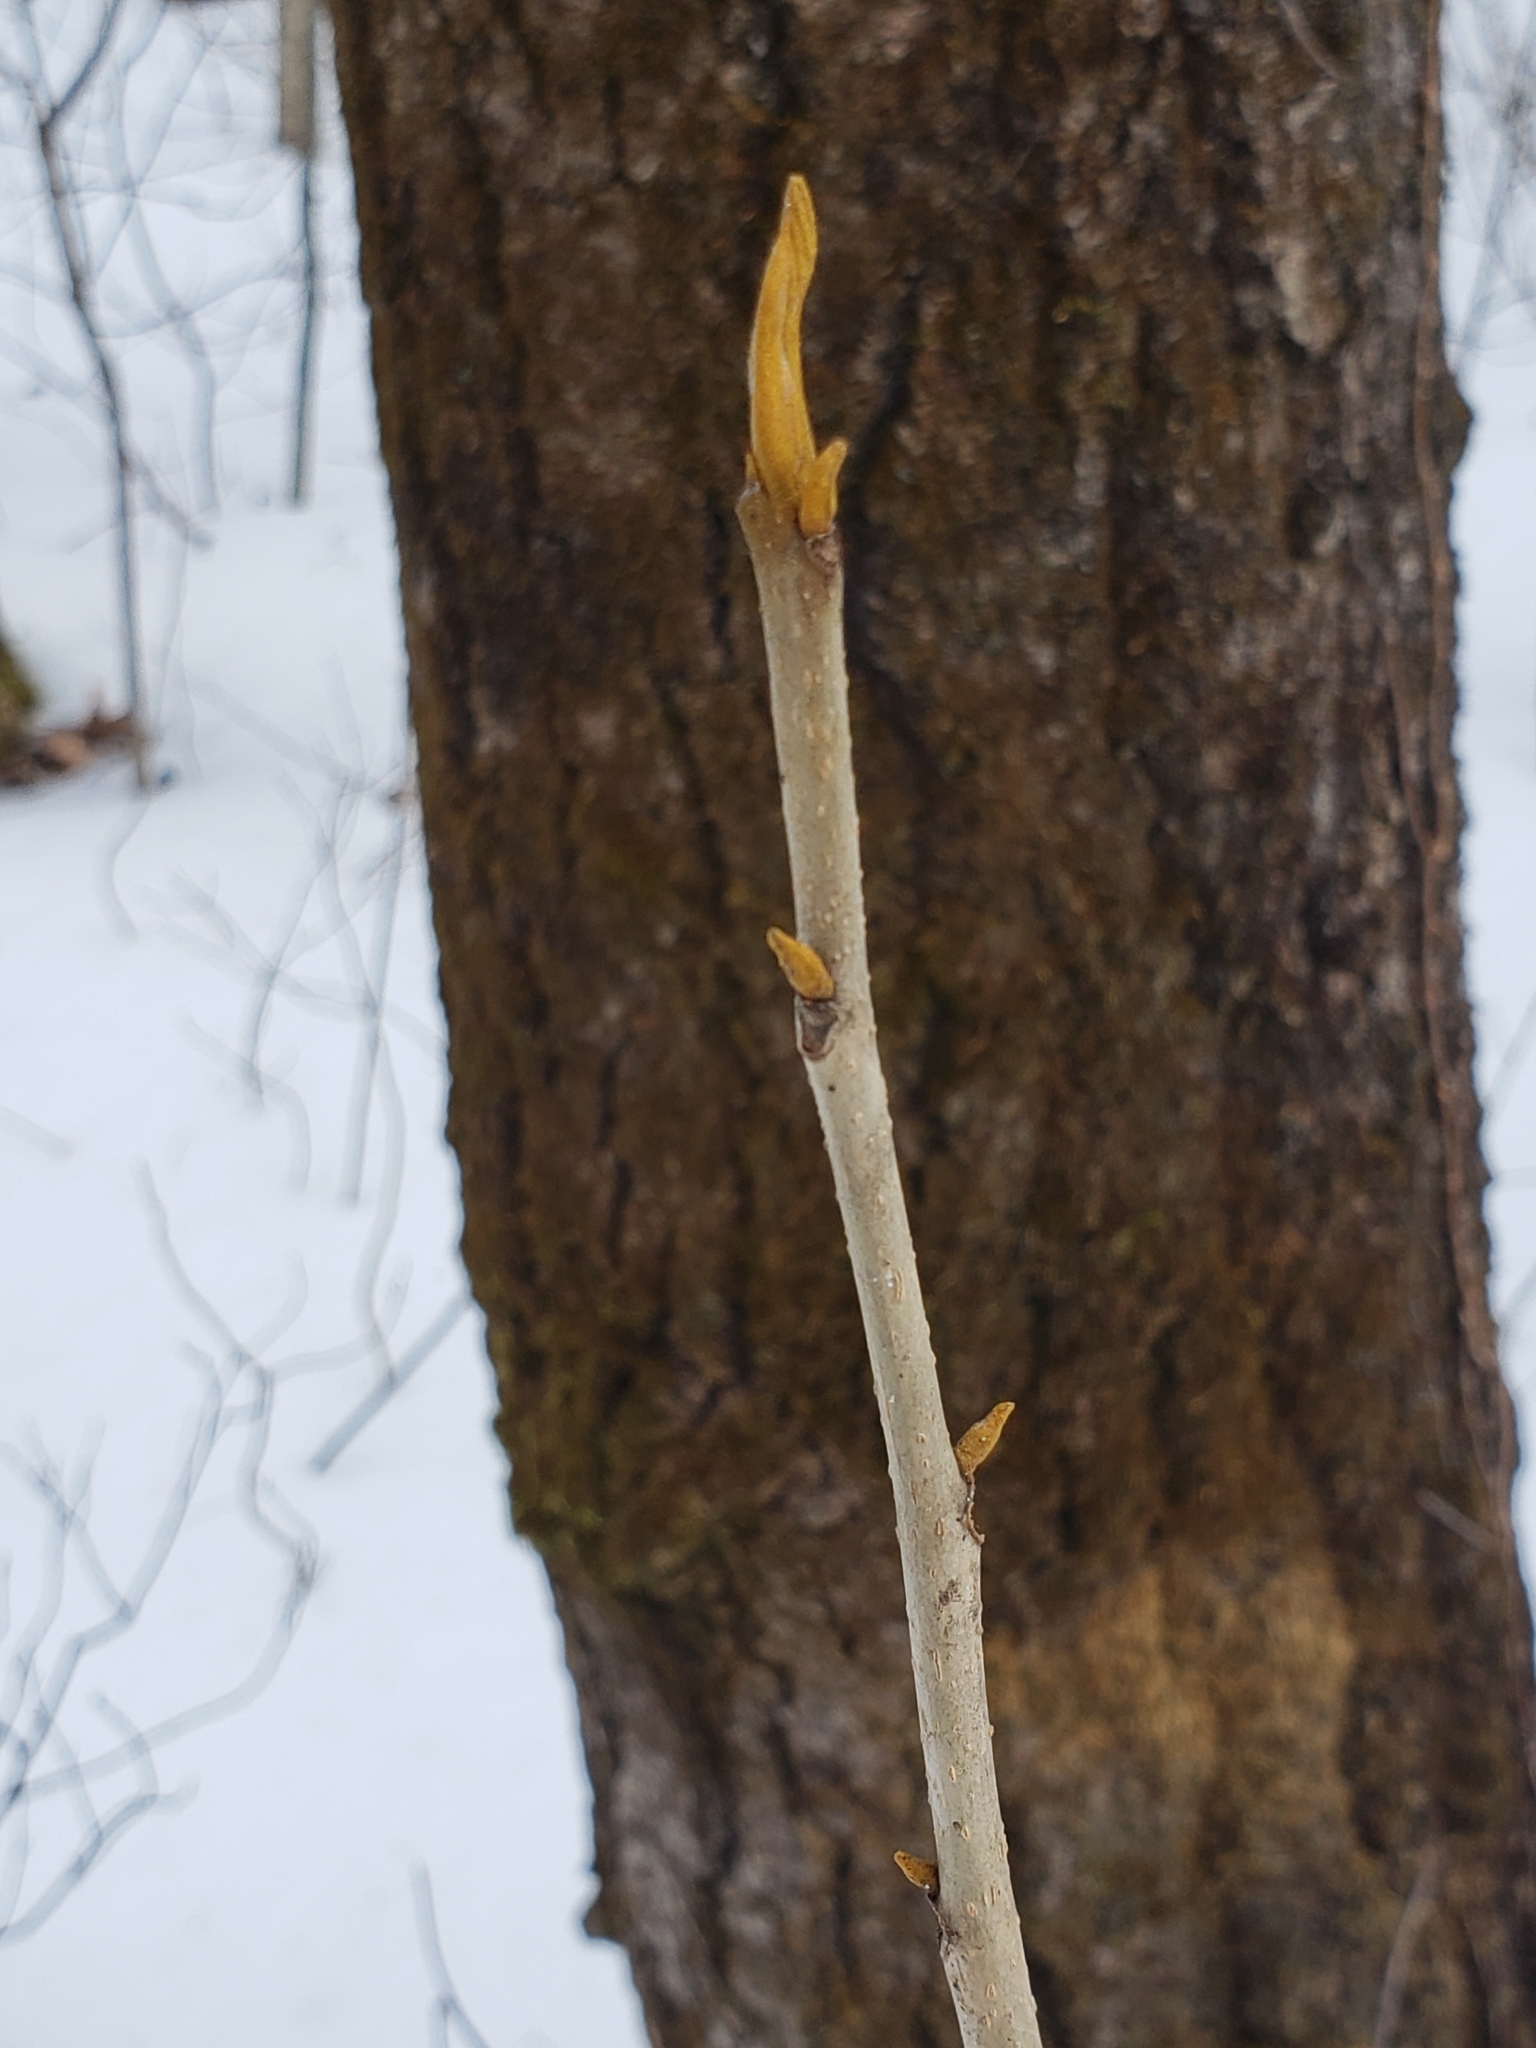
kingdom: Plantae
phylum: Tracheophyta
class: Magnoliopsida
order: Fagales
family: Juglandaceae
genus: Carya
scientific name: Carya cordiformis
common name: Bitternut hickory
